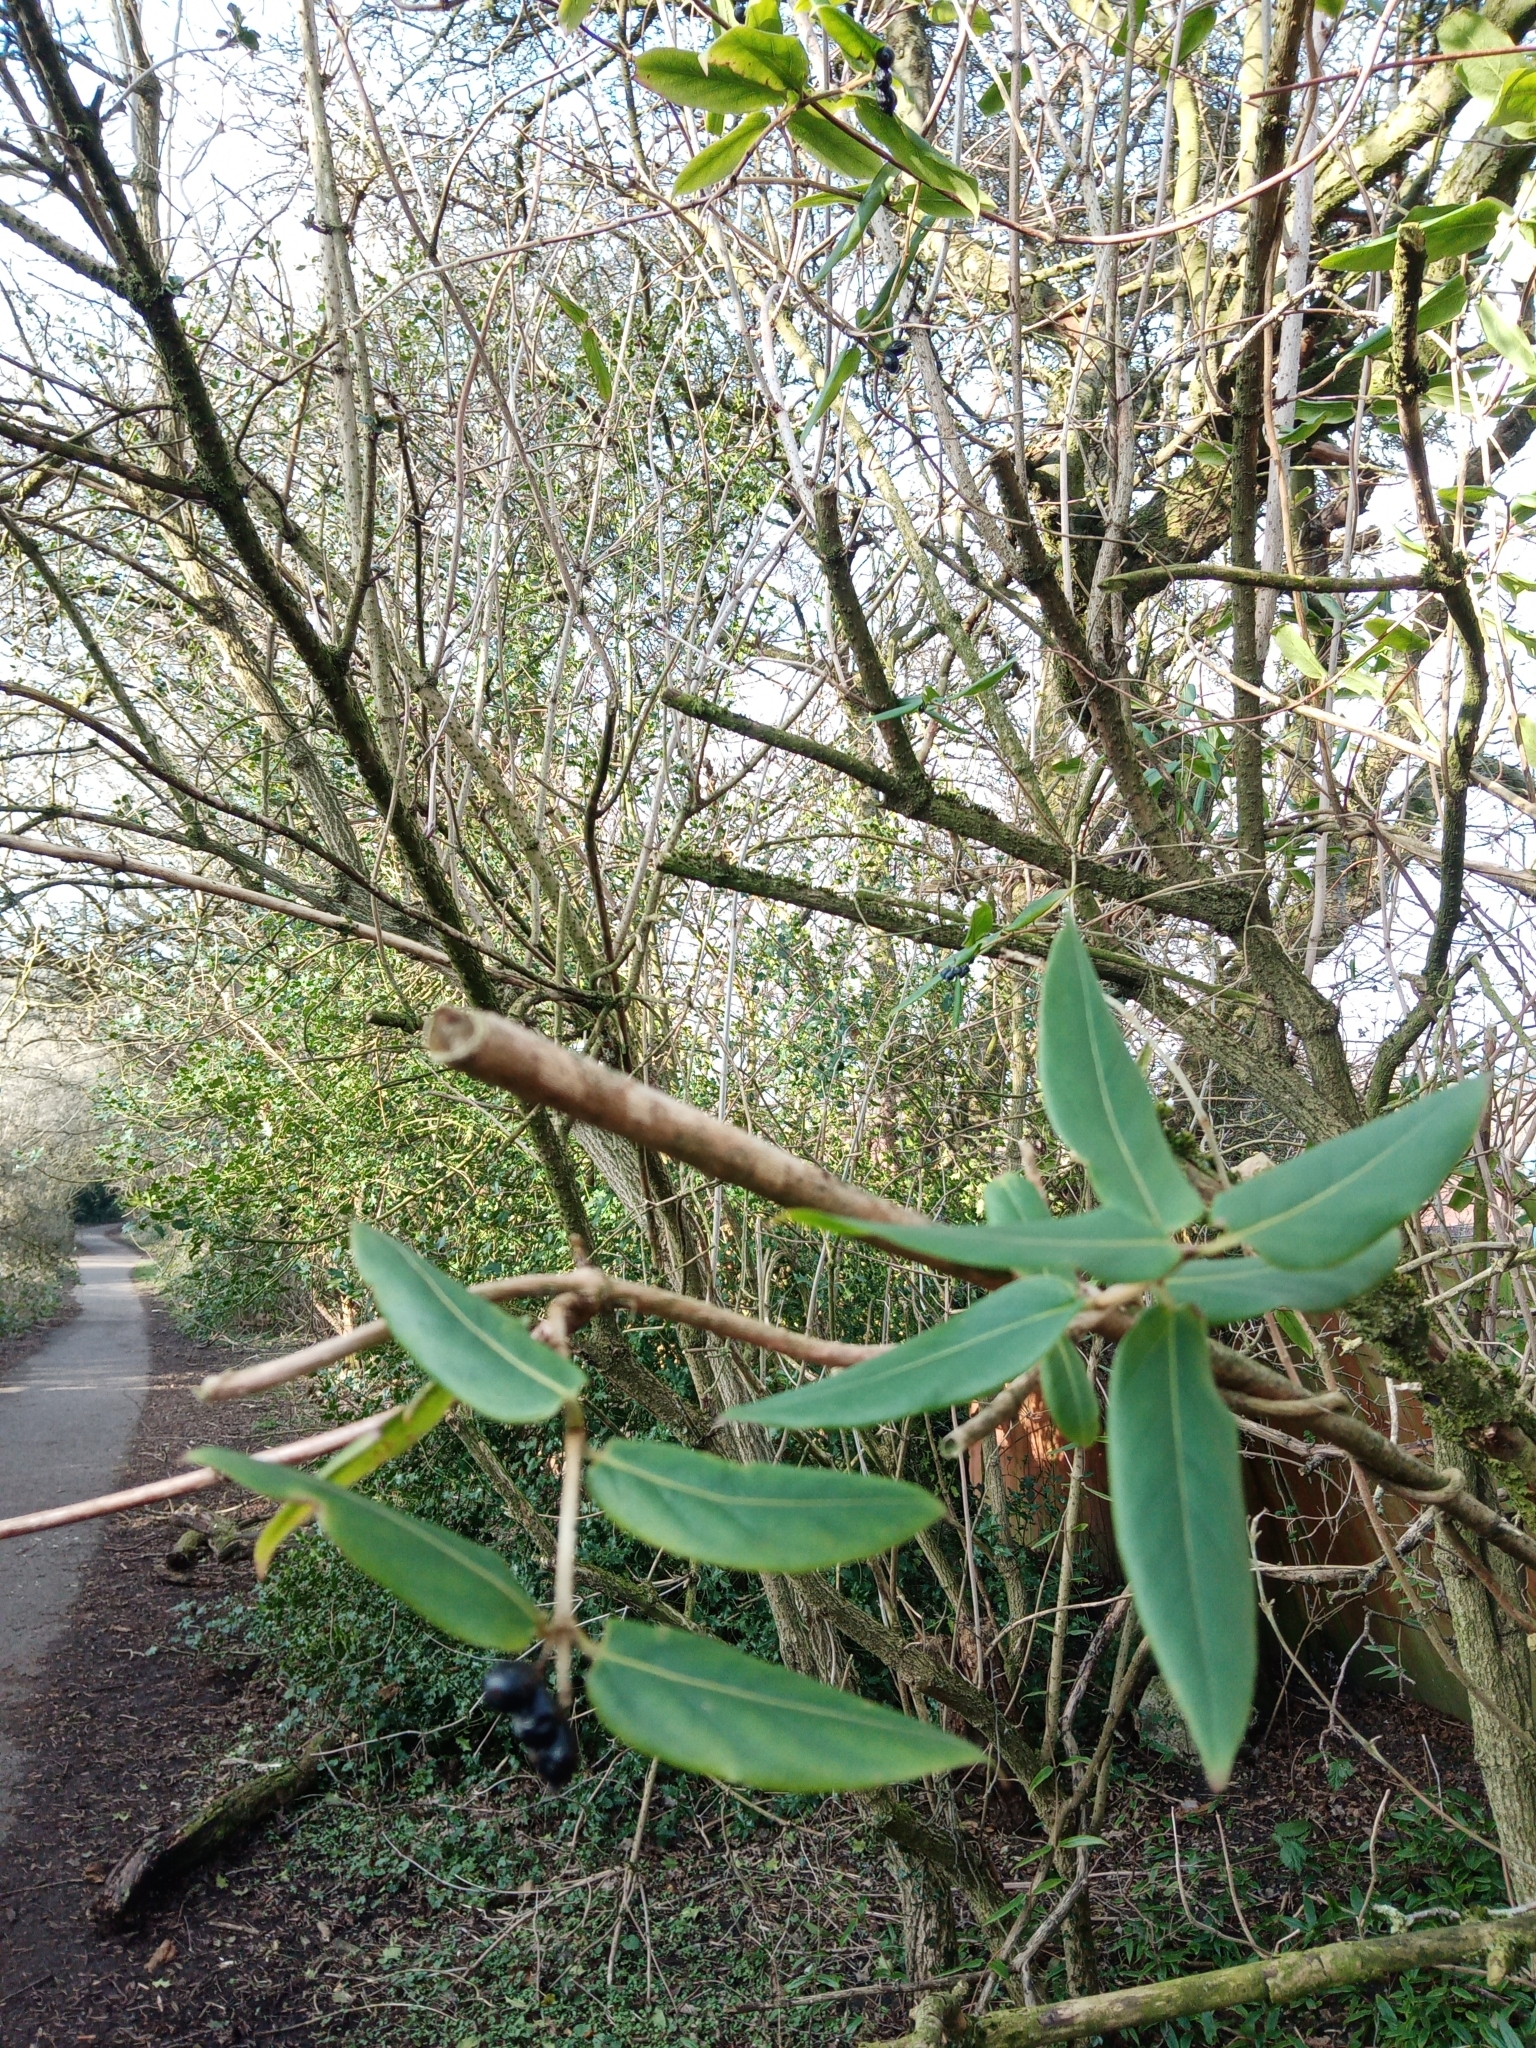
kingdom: Plantae
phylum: Tracheophyta
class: Magnoliopsida
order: Dipsacales
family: Caprifoliaceae
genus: Lonicera
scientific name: Lonicera acuminata
